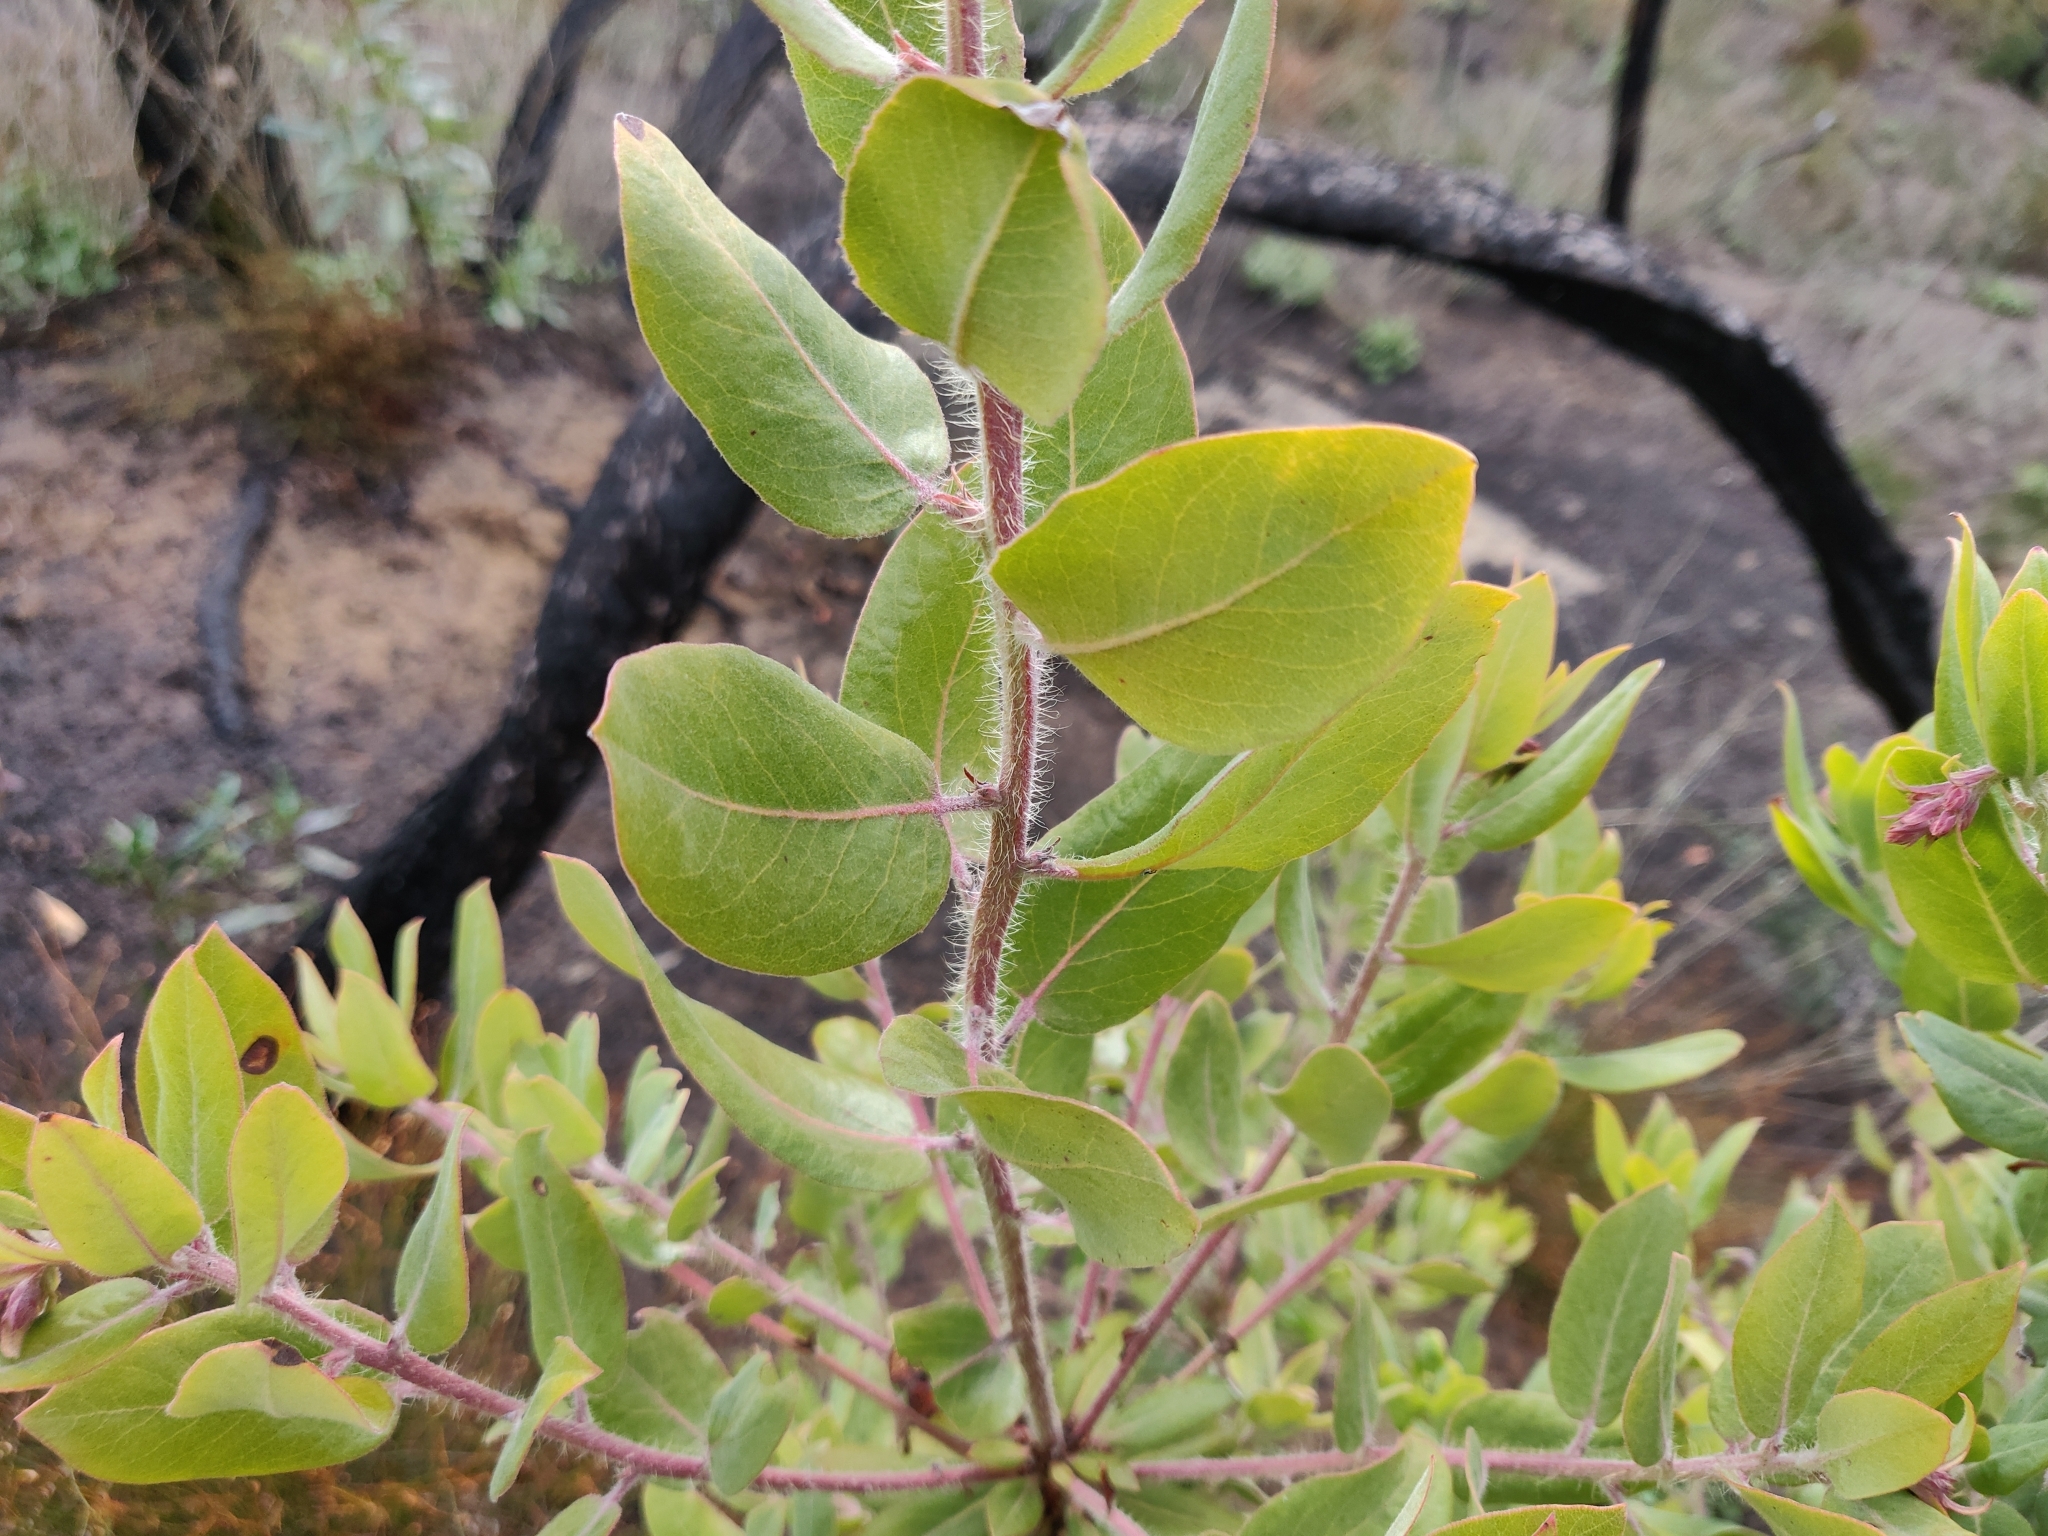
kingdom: Plantae
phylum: Tracheophyta
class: Magnoliopsida
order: Ericales
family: Ericaceae
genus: Arctostaphylos
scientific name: Arctostaphylos crustacea
